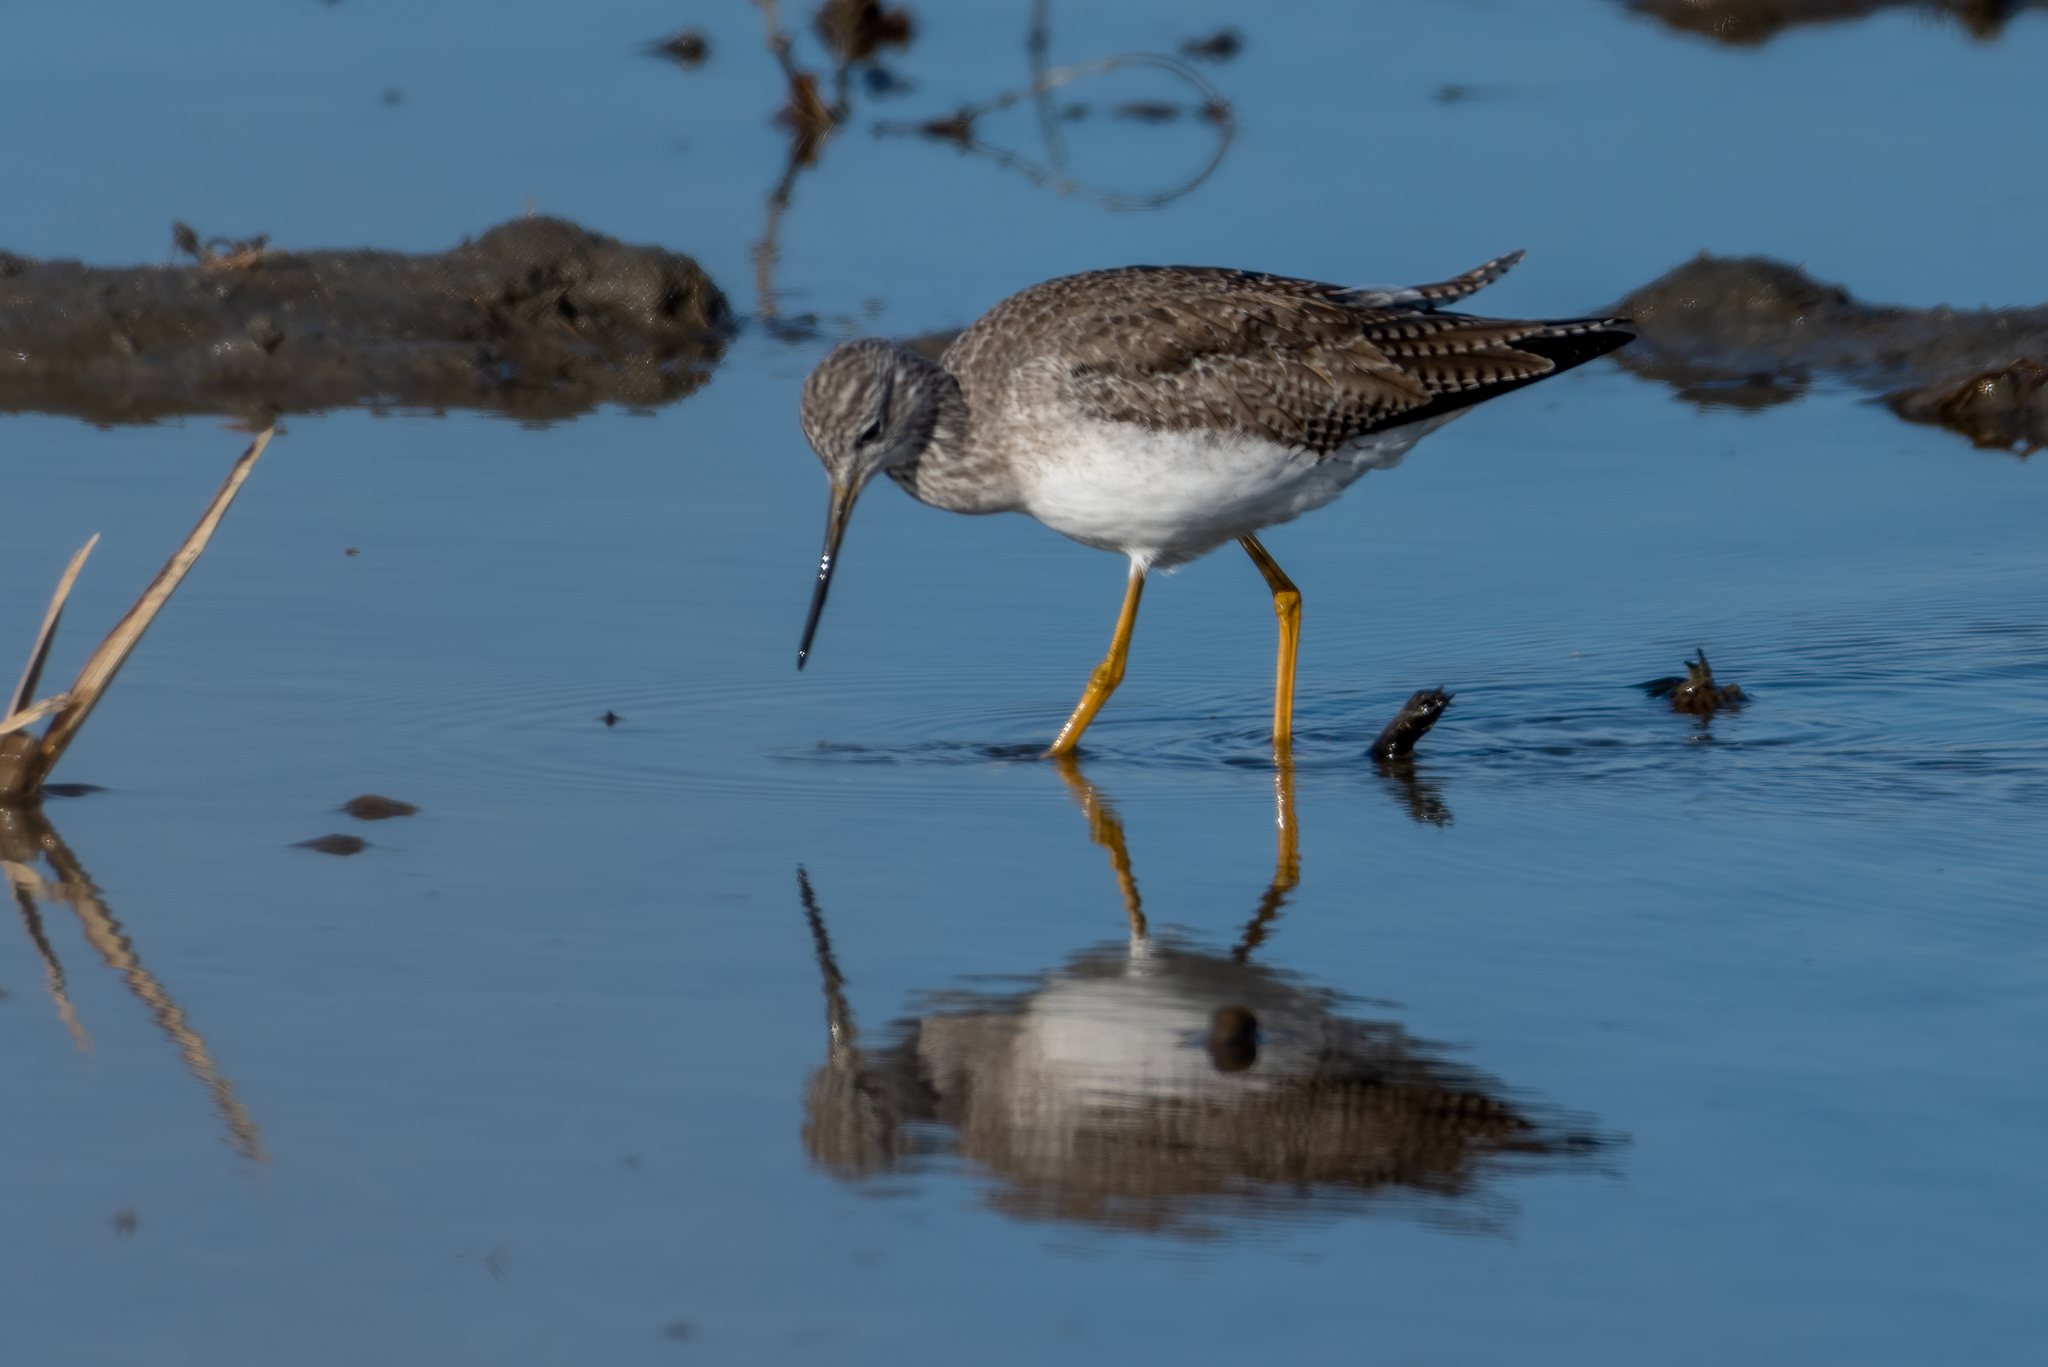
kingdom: Animalia
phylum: Chordata
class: Aves
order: Charadriiformes
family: Scolopacidae
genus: Tringa
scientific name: Tringa melanoleuca
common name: Greater yellowlegs
